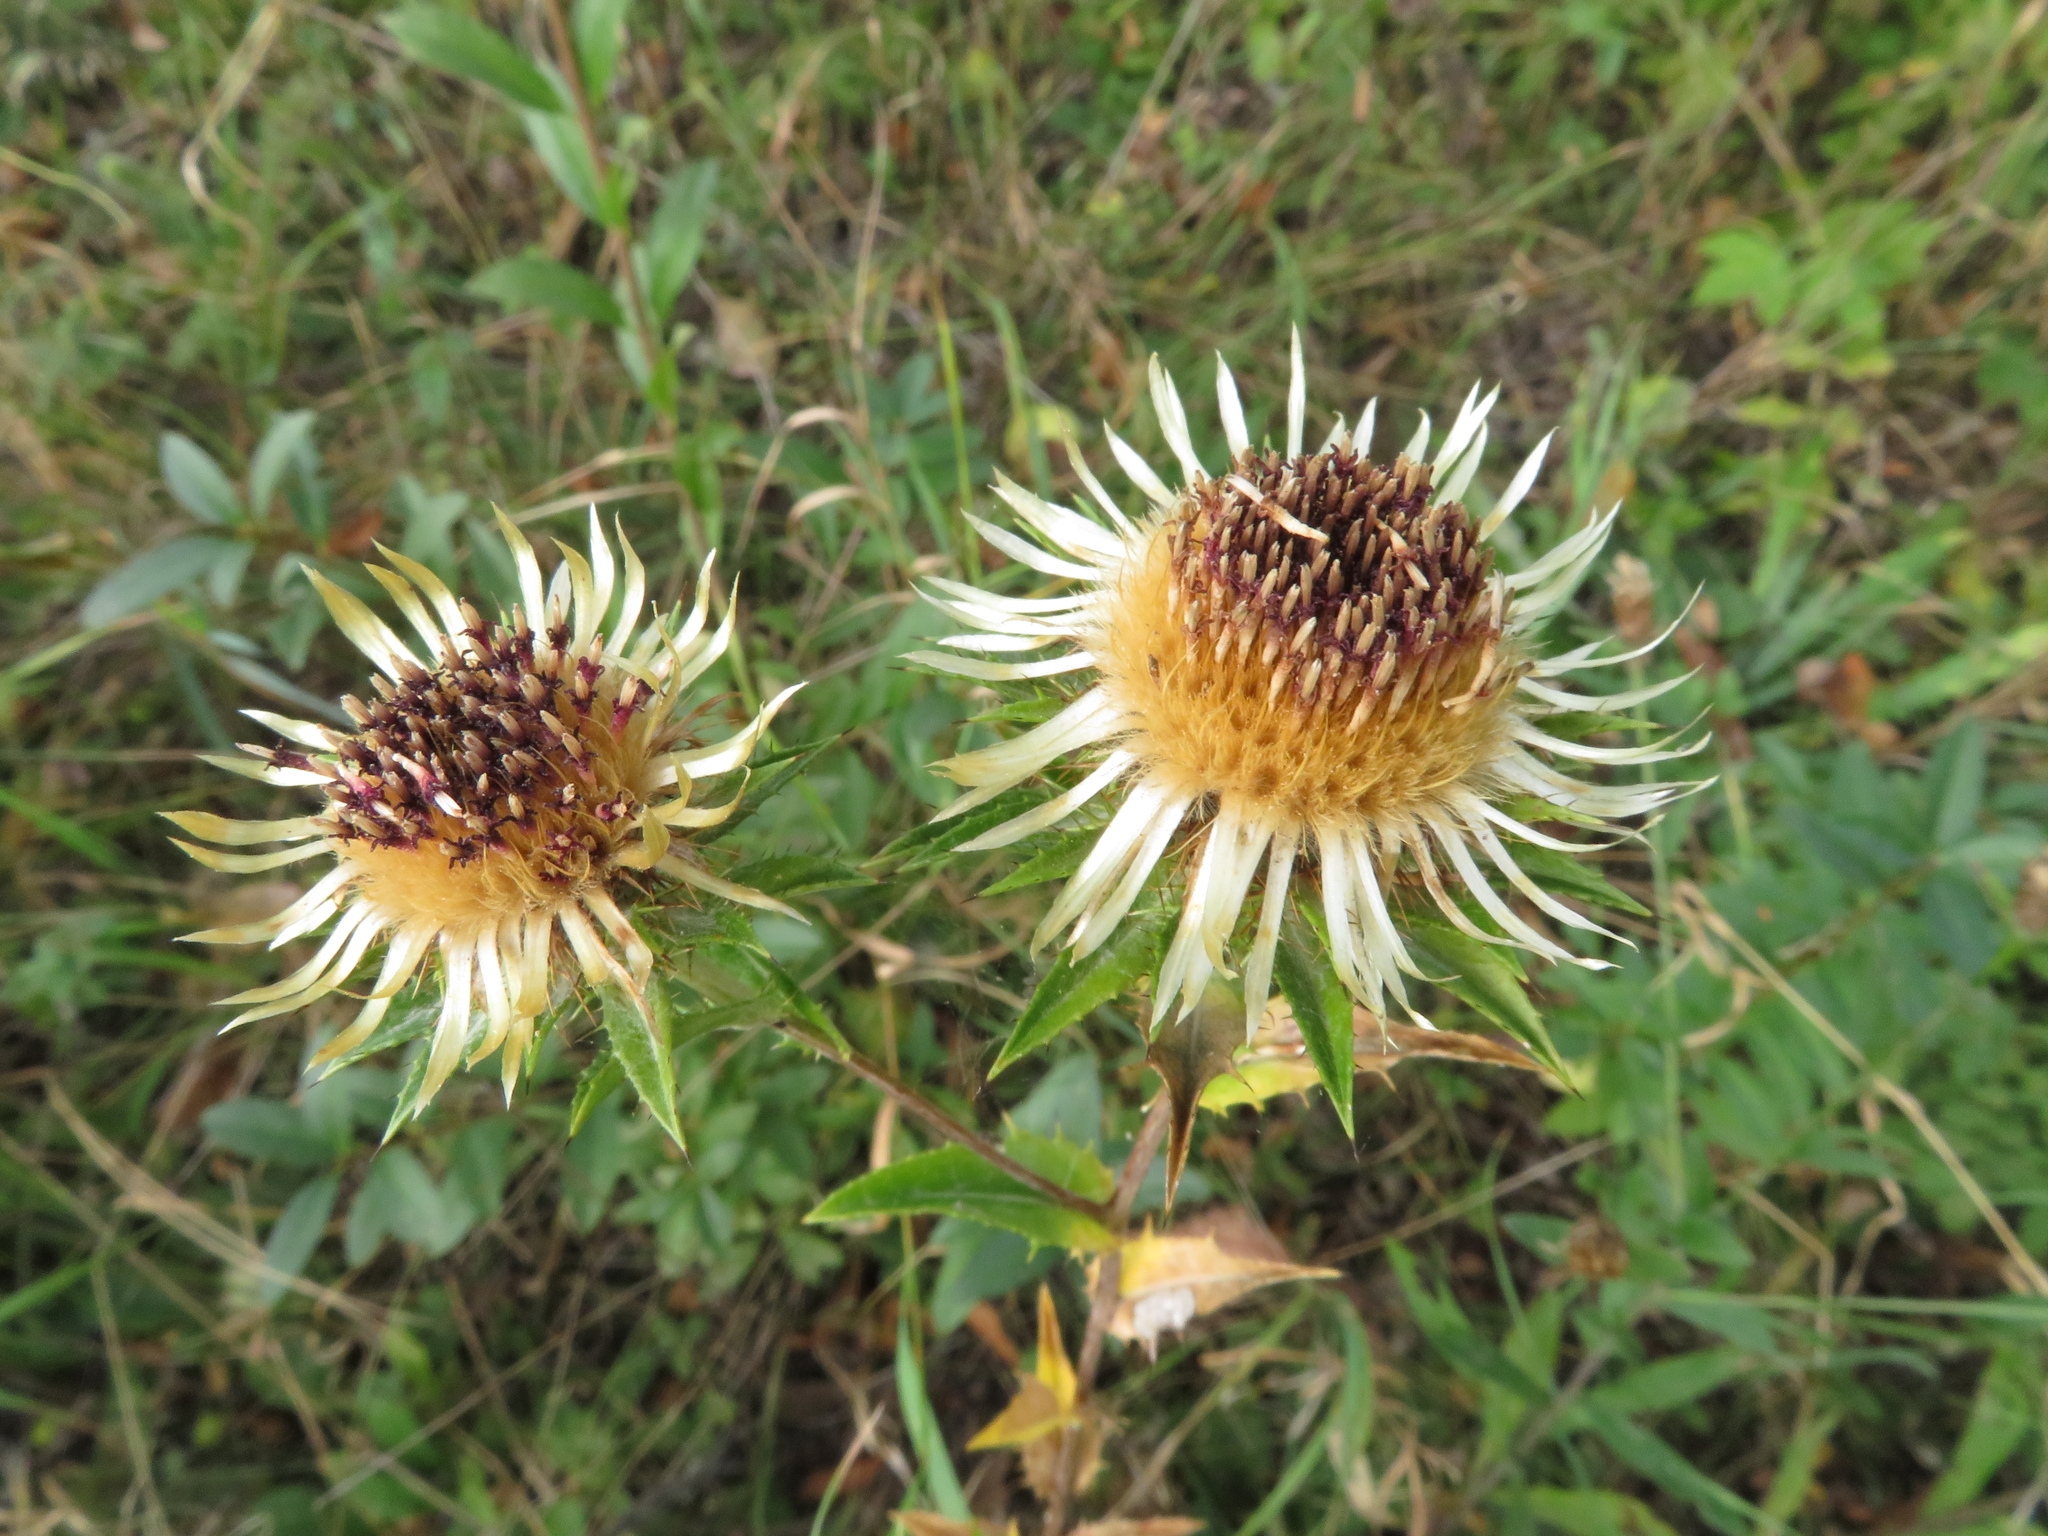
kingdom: Plantae
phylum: Tracheophyta
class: Magnoliopsida
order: Asterales
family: Asteraceae
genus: Carlina
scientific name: Carlina vulgaris
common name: Carline thistle
